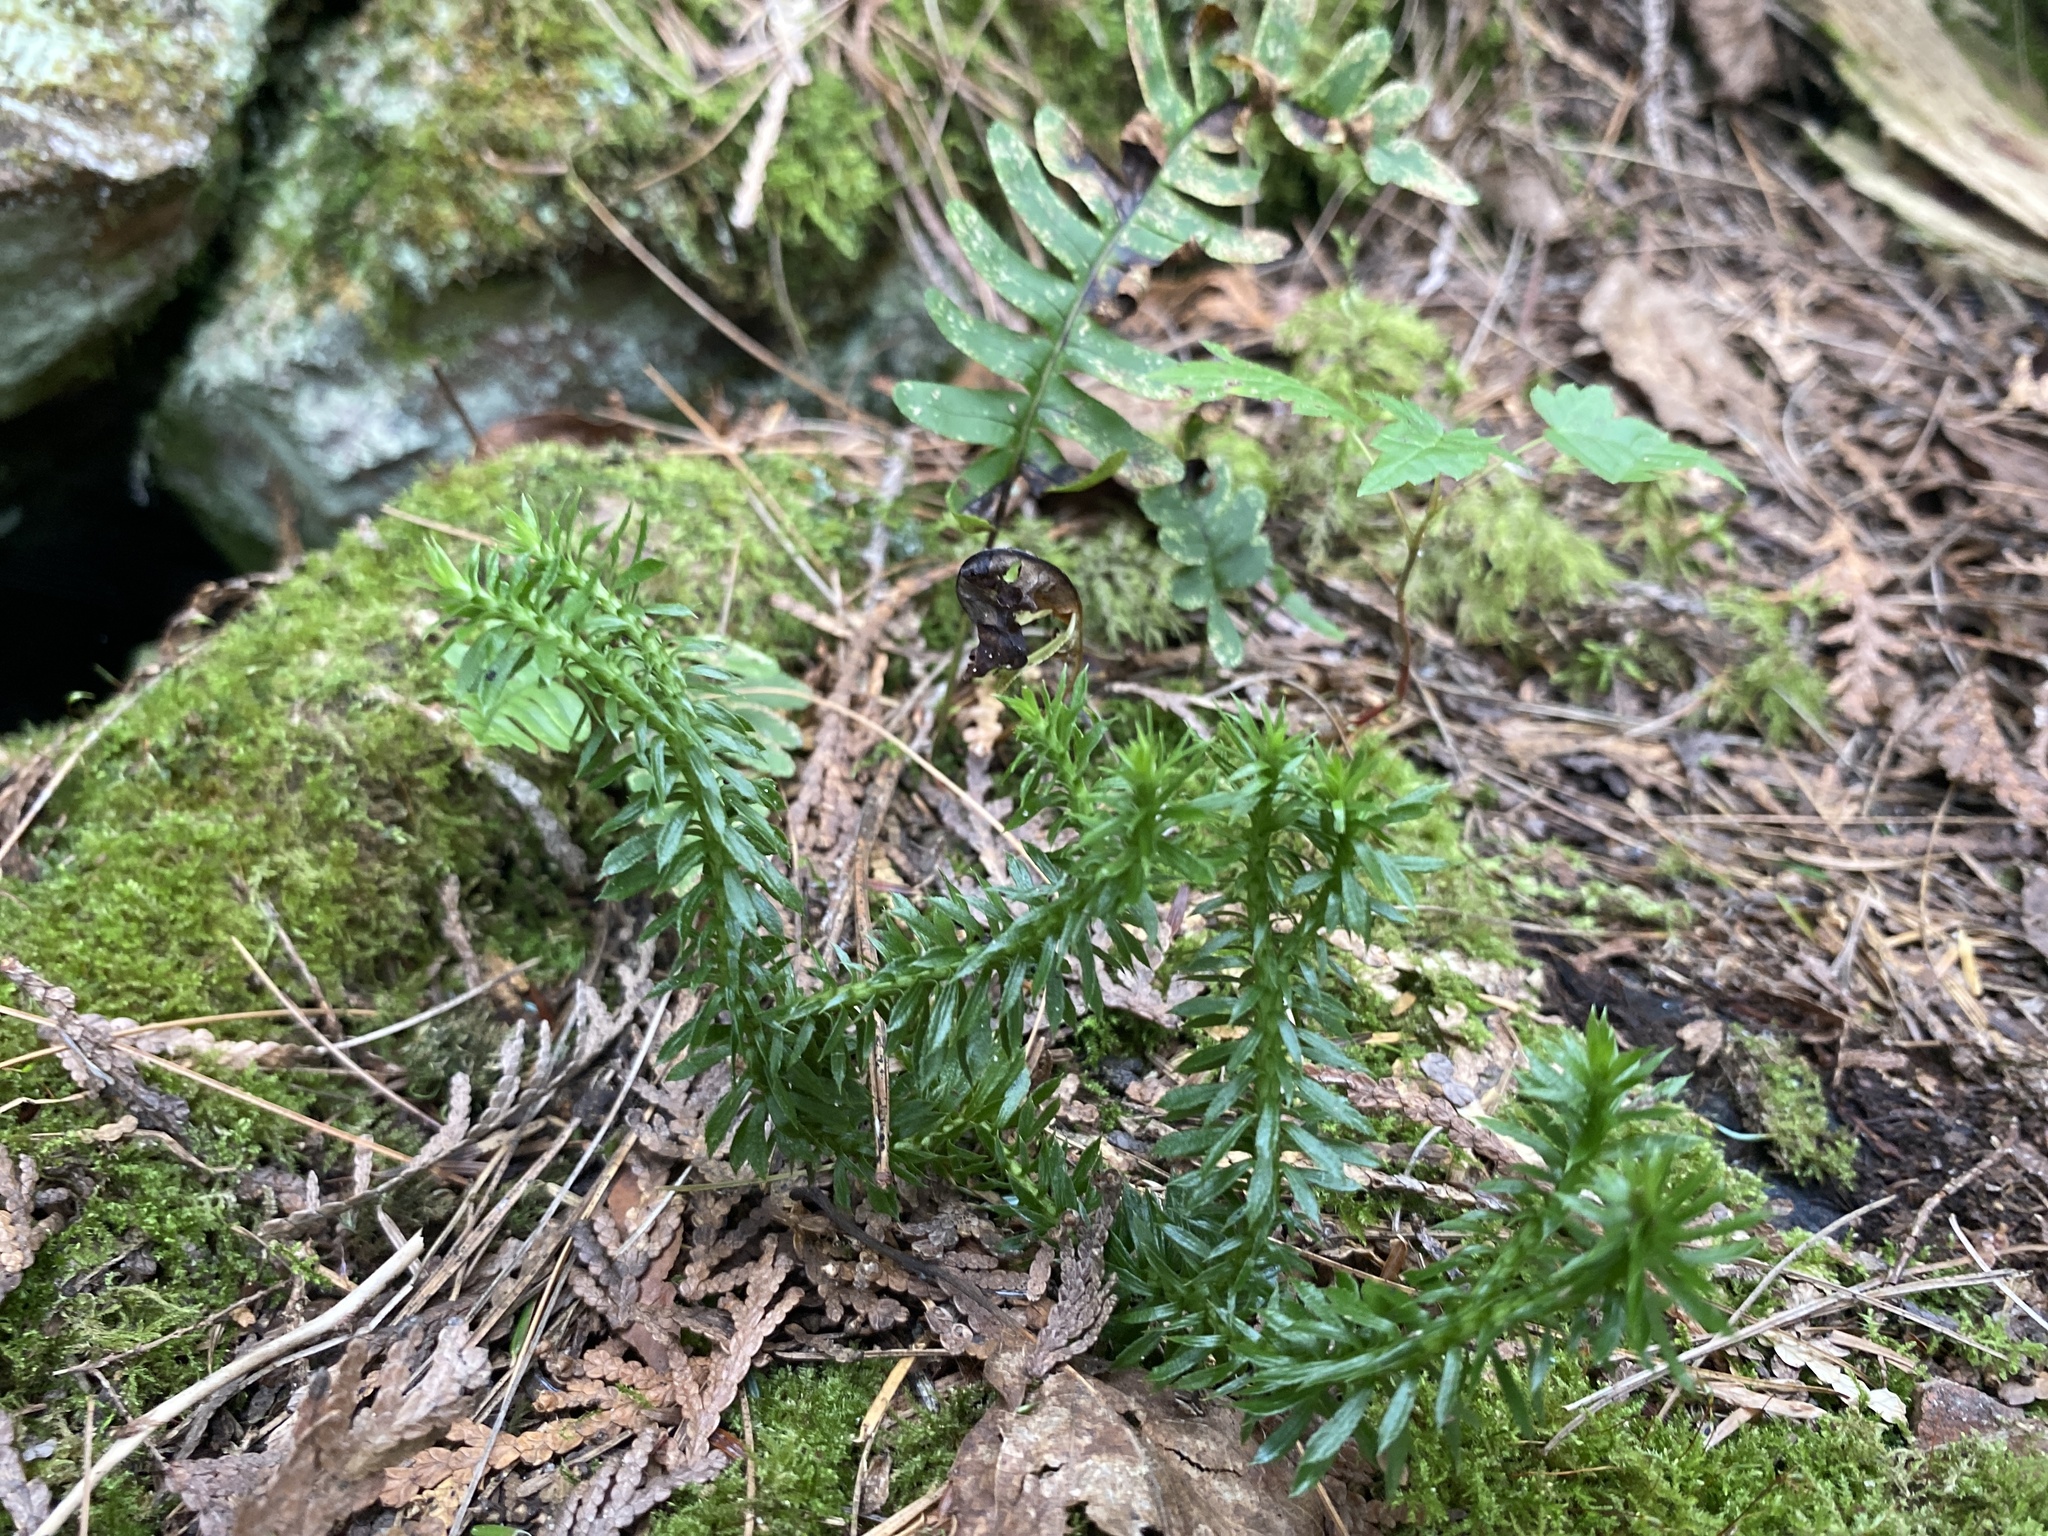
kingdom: Plantae
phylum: Tracheophyta
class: Lycopodiopsida
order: Lycopodiales
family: Lycopodiaceae
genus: Huperzia
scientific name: Huperzia lucidula
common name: Shining clubmoss
